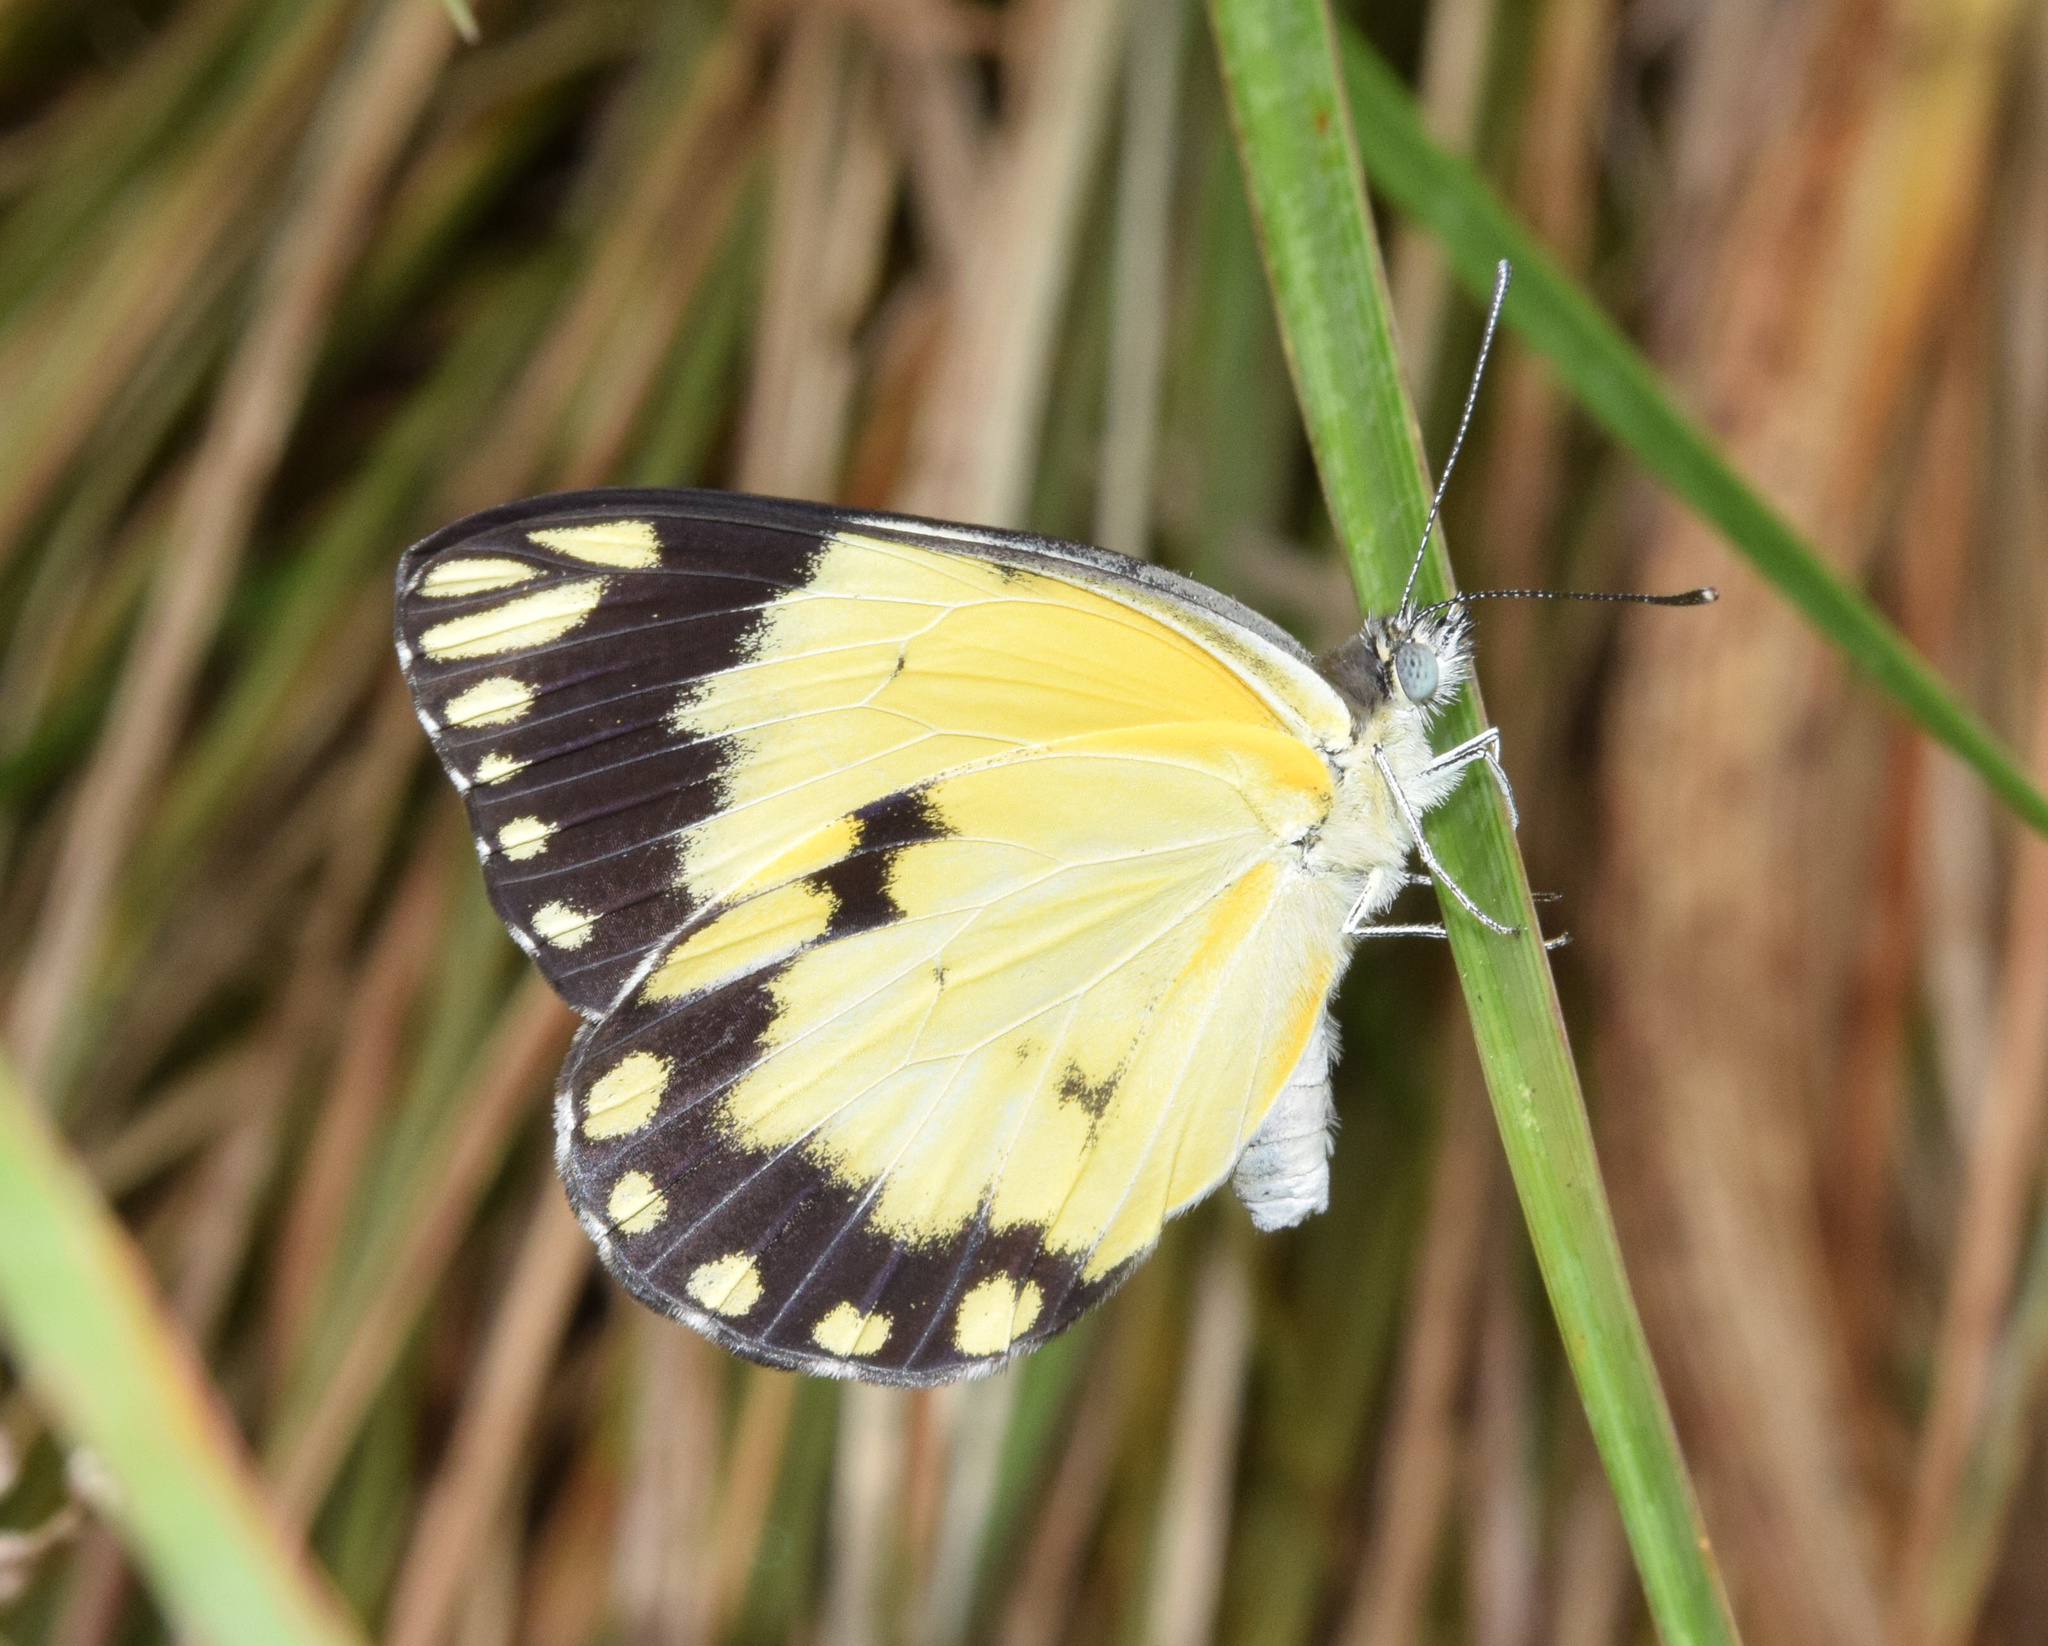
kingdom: Animalia
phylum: Arthropoda
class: Insecta
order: Lepidoptera
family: Pieridae
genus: Belenois
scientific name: Belenois creona
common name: African caper white
